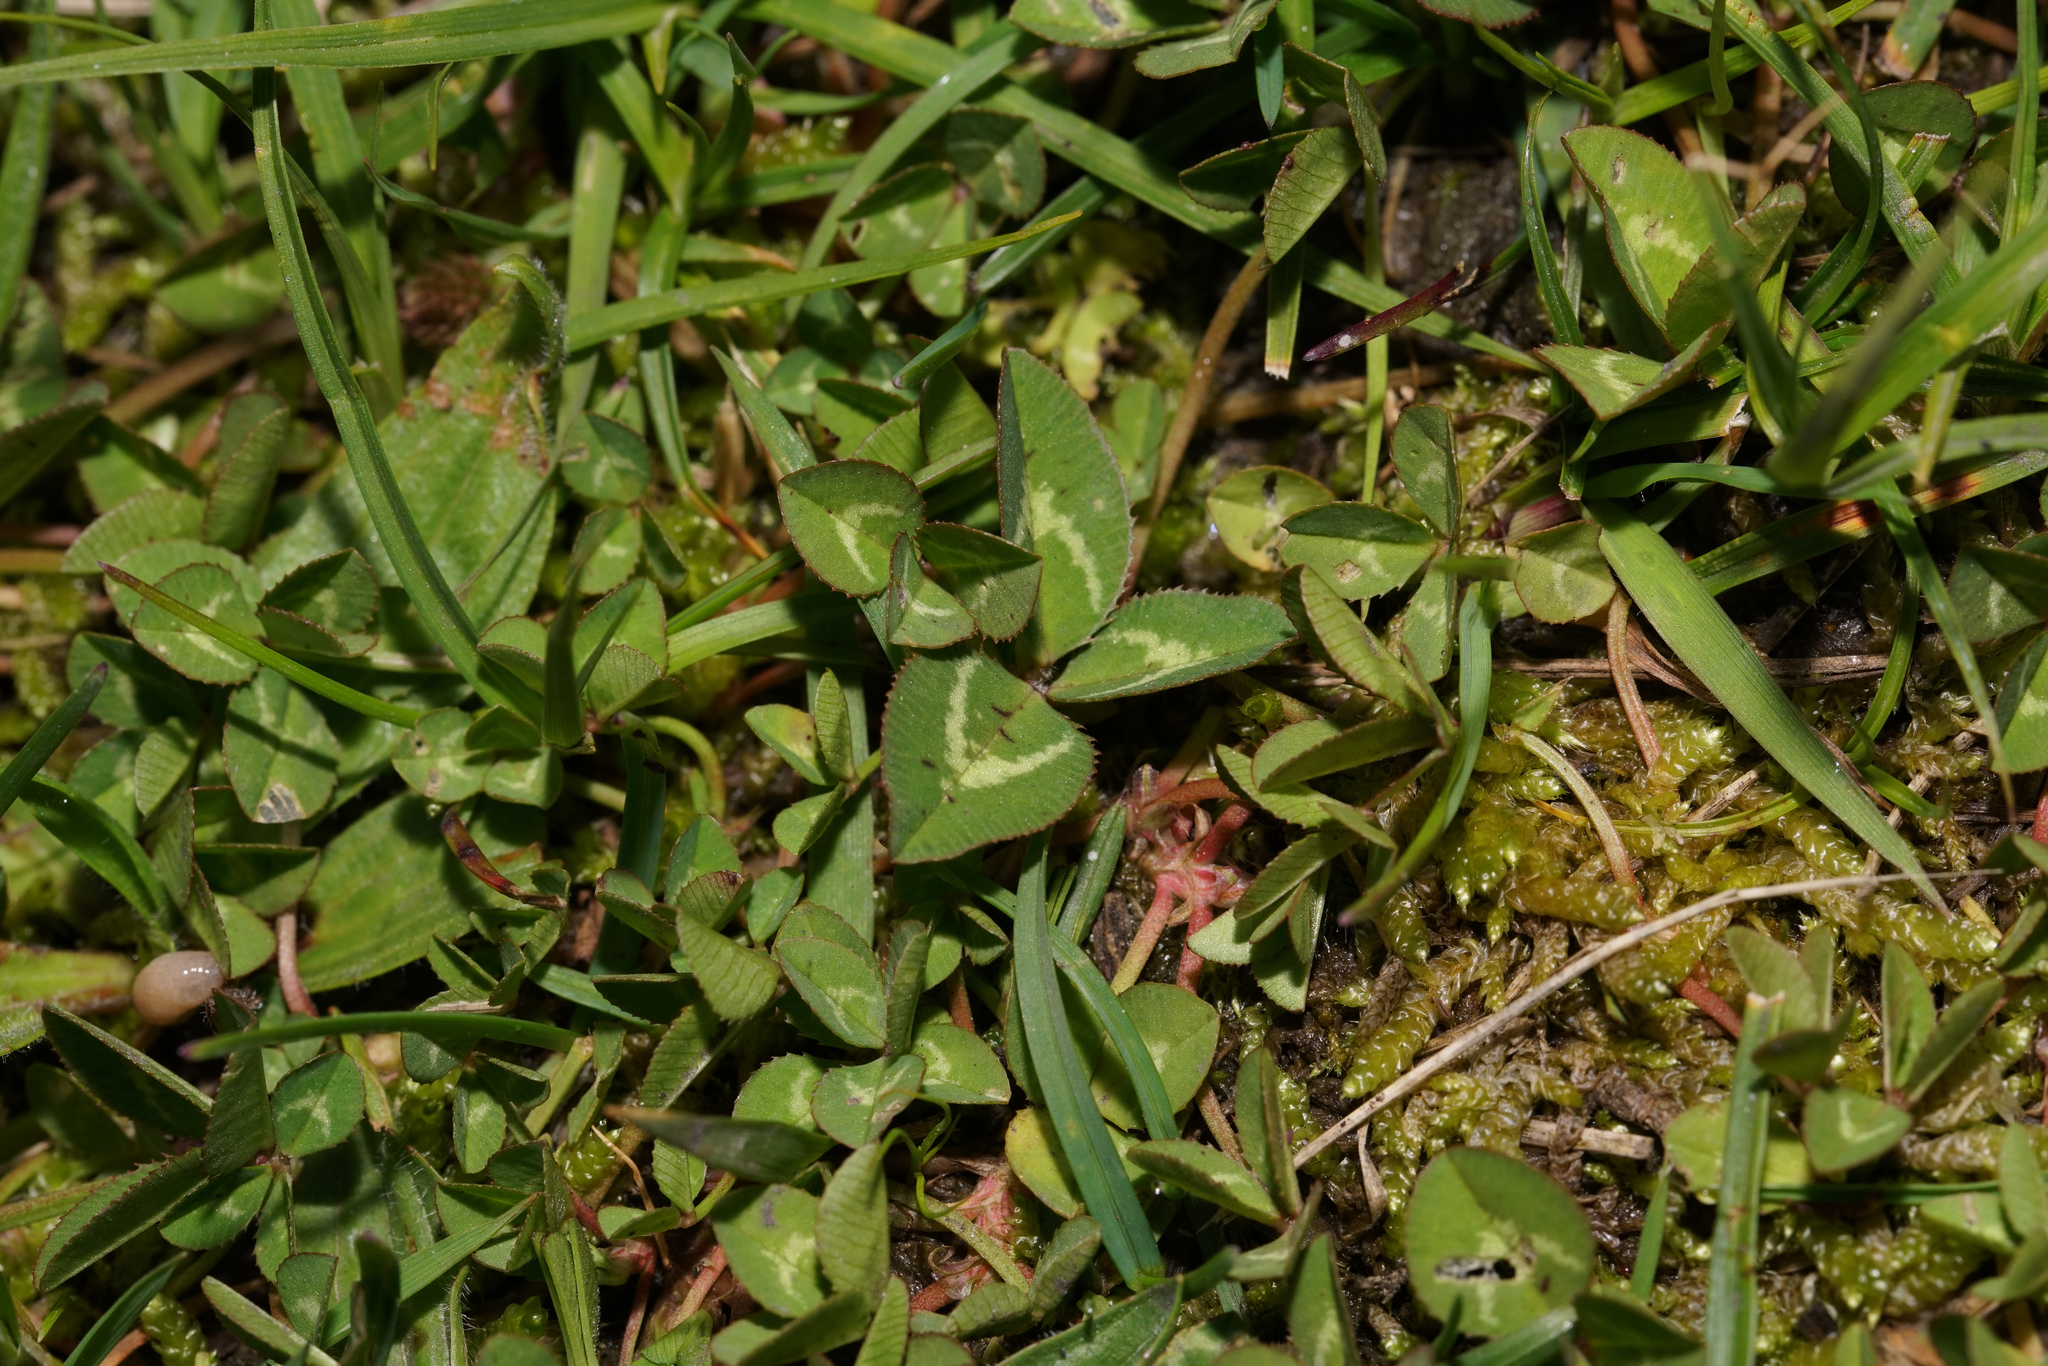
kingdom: Plantae
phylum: Tracheophyta
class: Magnoliopsida
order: Fabales
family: Fabaceae
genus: Trifolium
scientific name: Trifolium repens
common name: White clover
